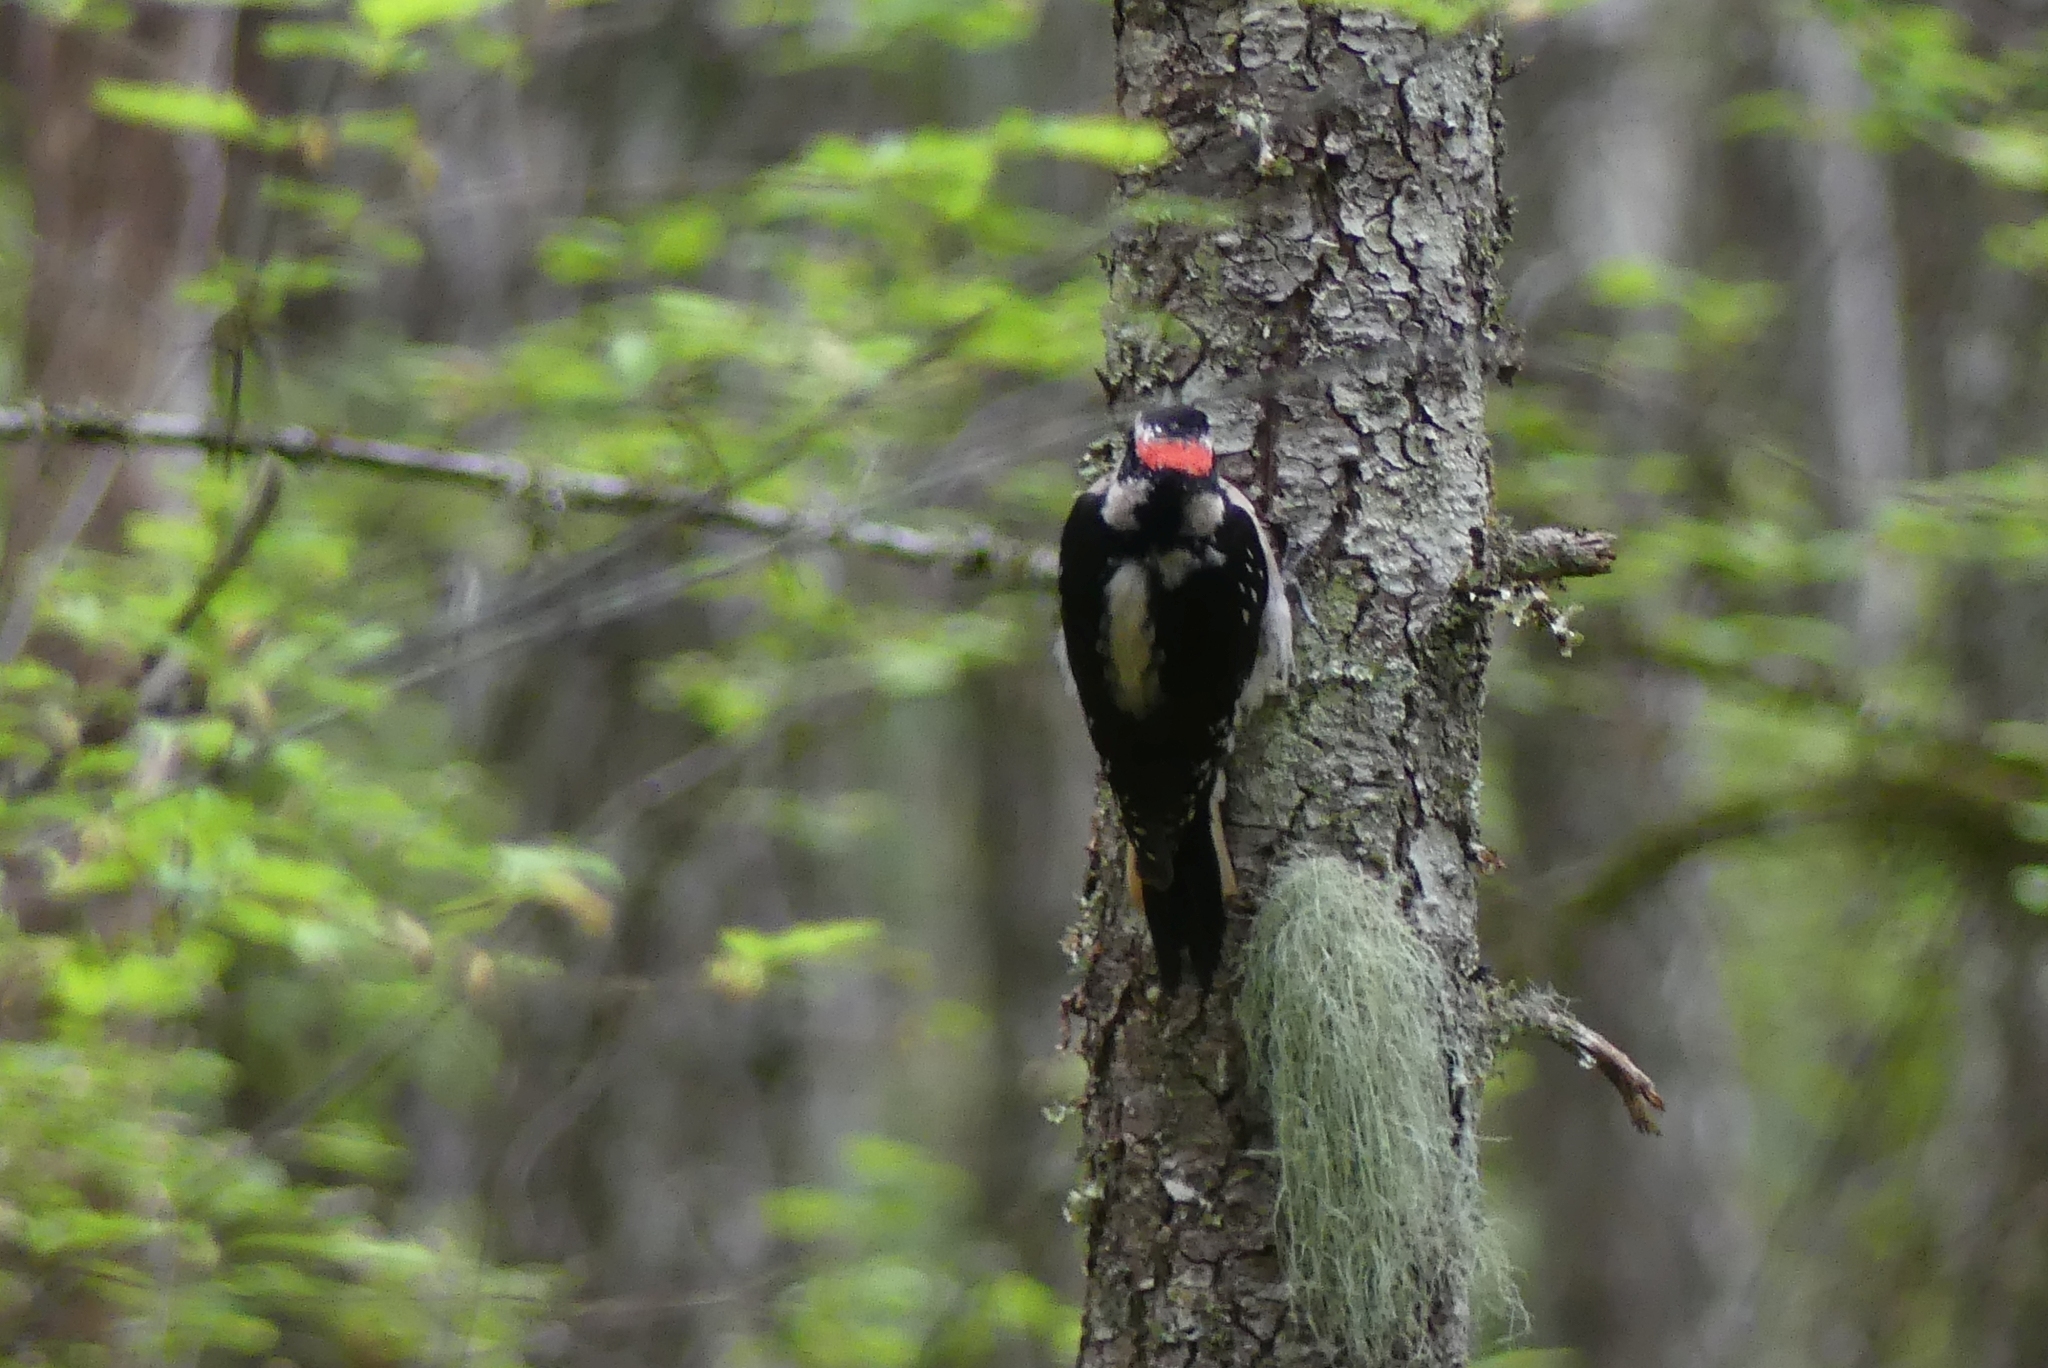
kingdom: Animalia
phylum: Chordata
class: Aves
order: Piciformes
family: Picidae
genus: Leuconotopicus
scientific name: Leuconotopicus villosus
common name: Hairy woodpecker
